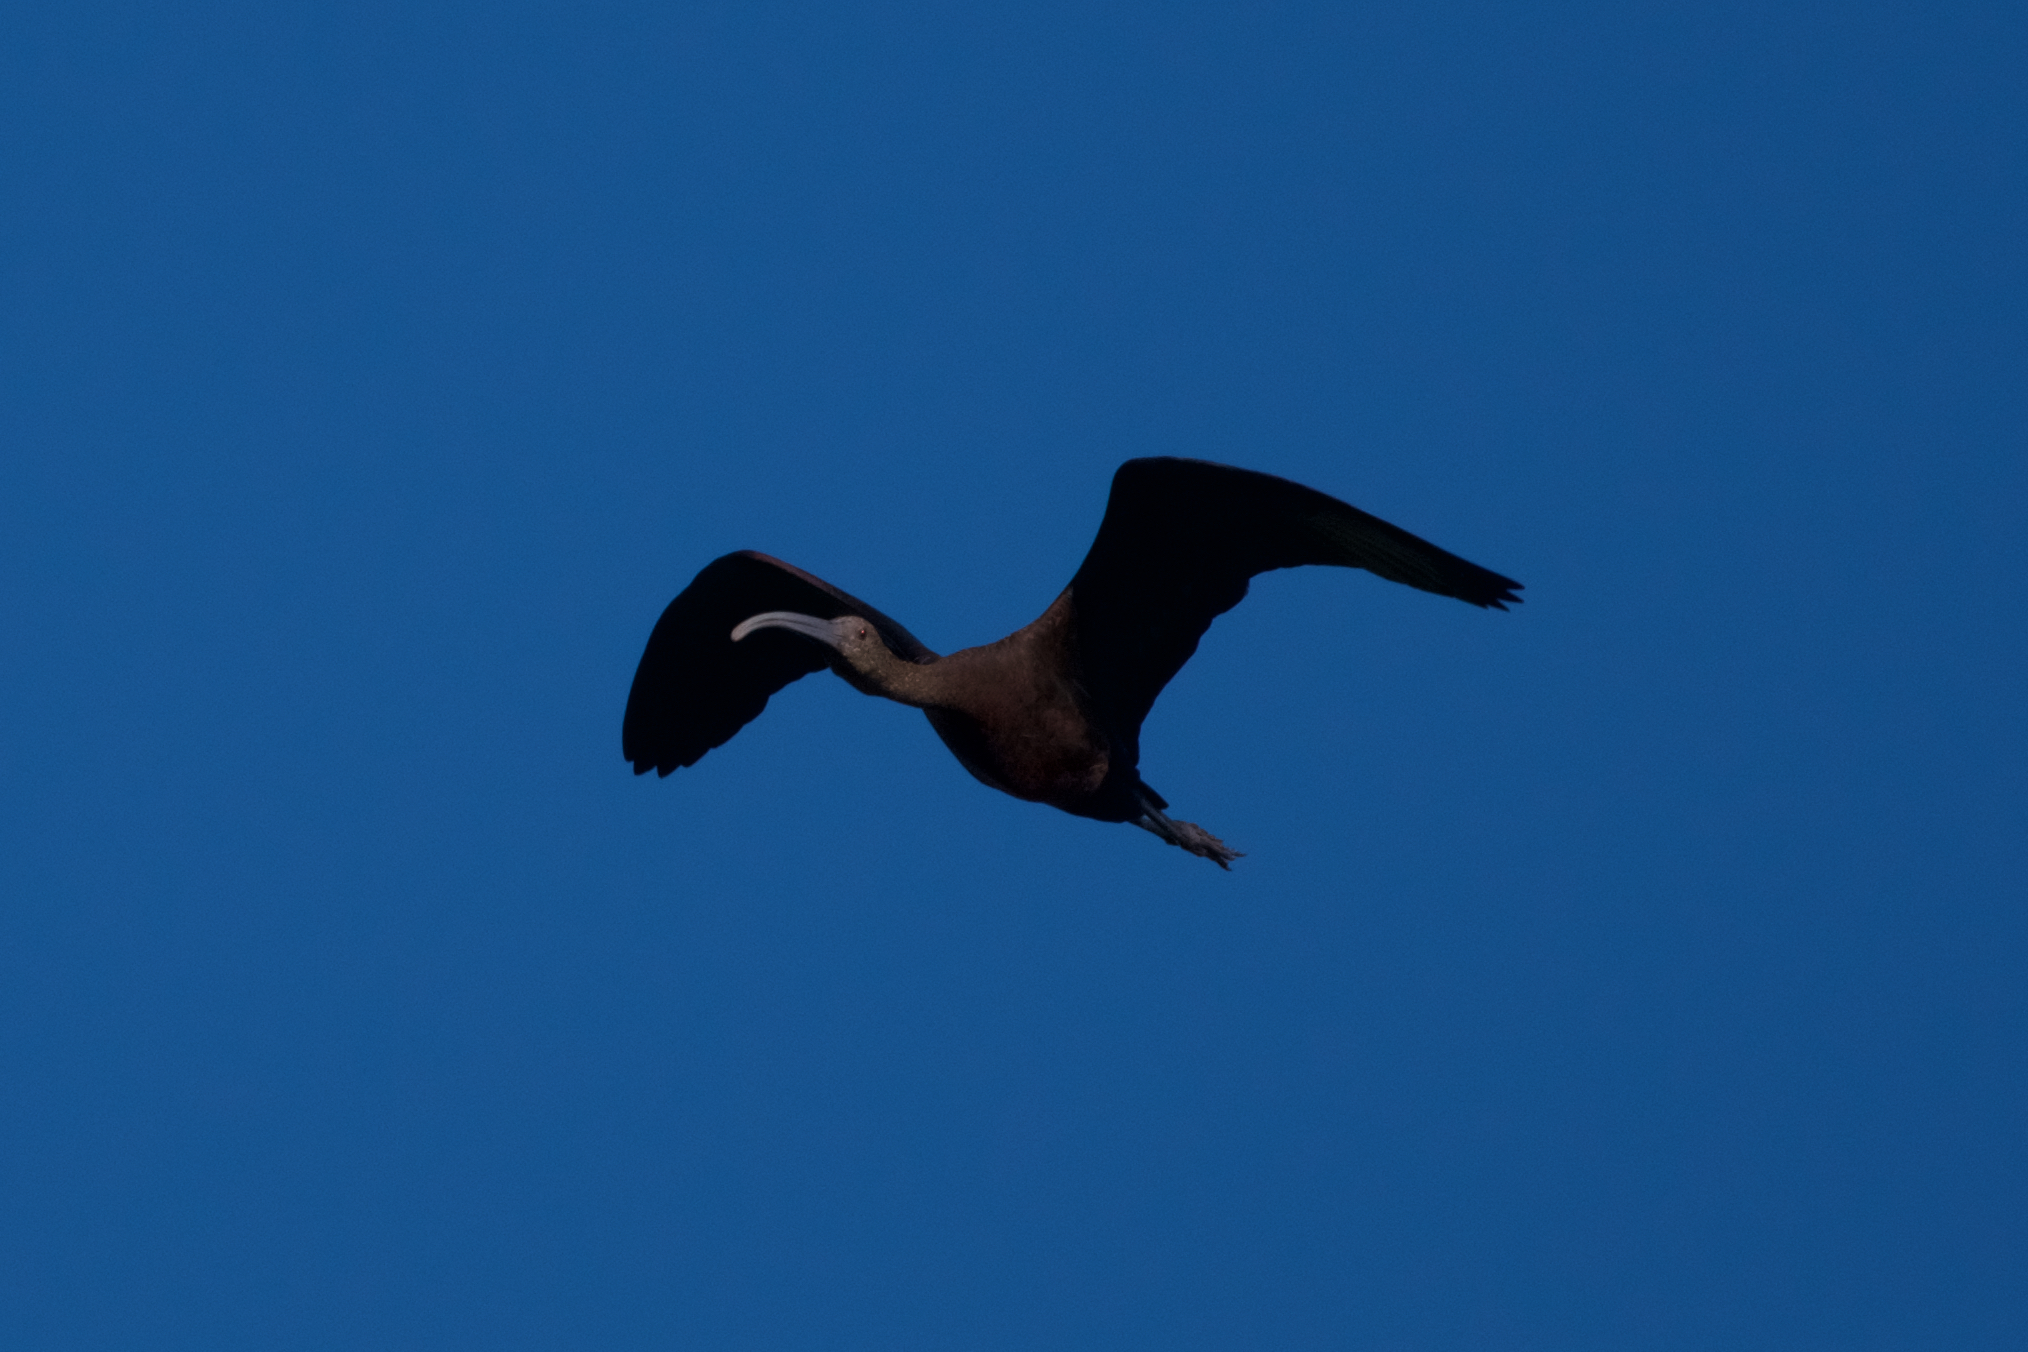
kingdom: Animalia
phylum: Chordata
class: Aves
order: Pelecaniformes
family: Threskiornithidae
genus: Plegadis
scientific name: Plegadis chihi
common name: White-faced ibis
